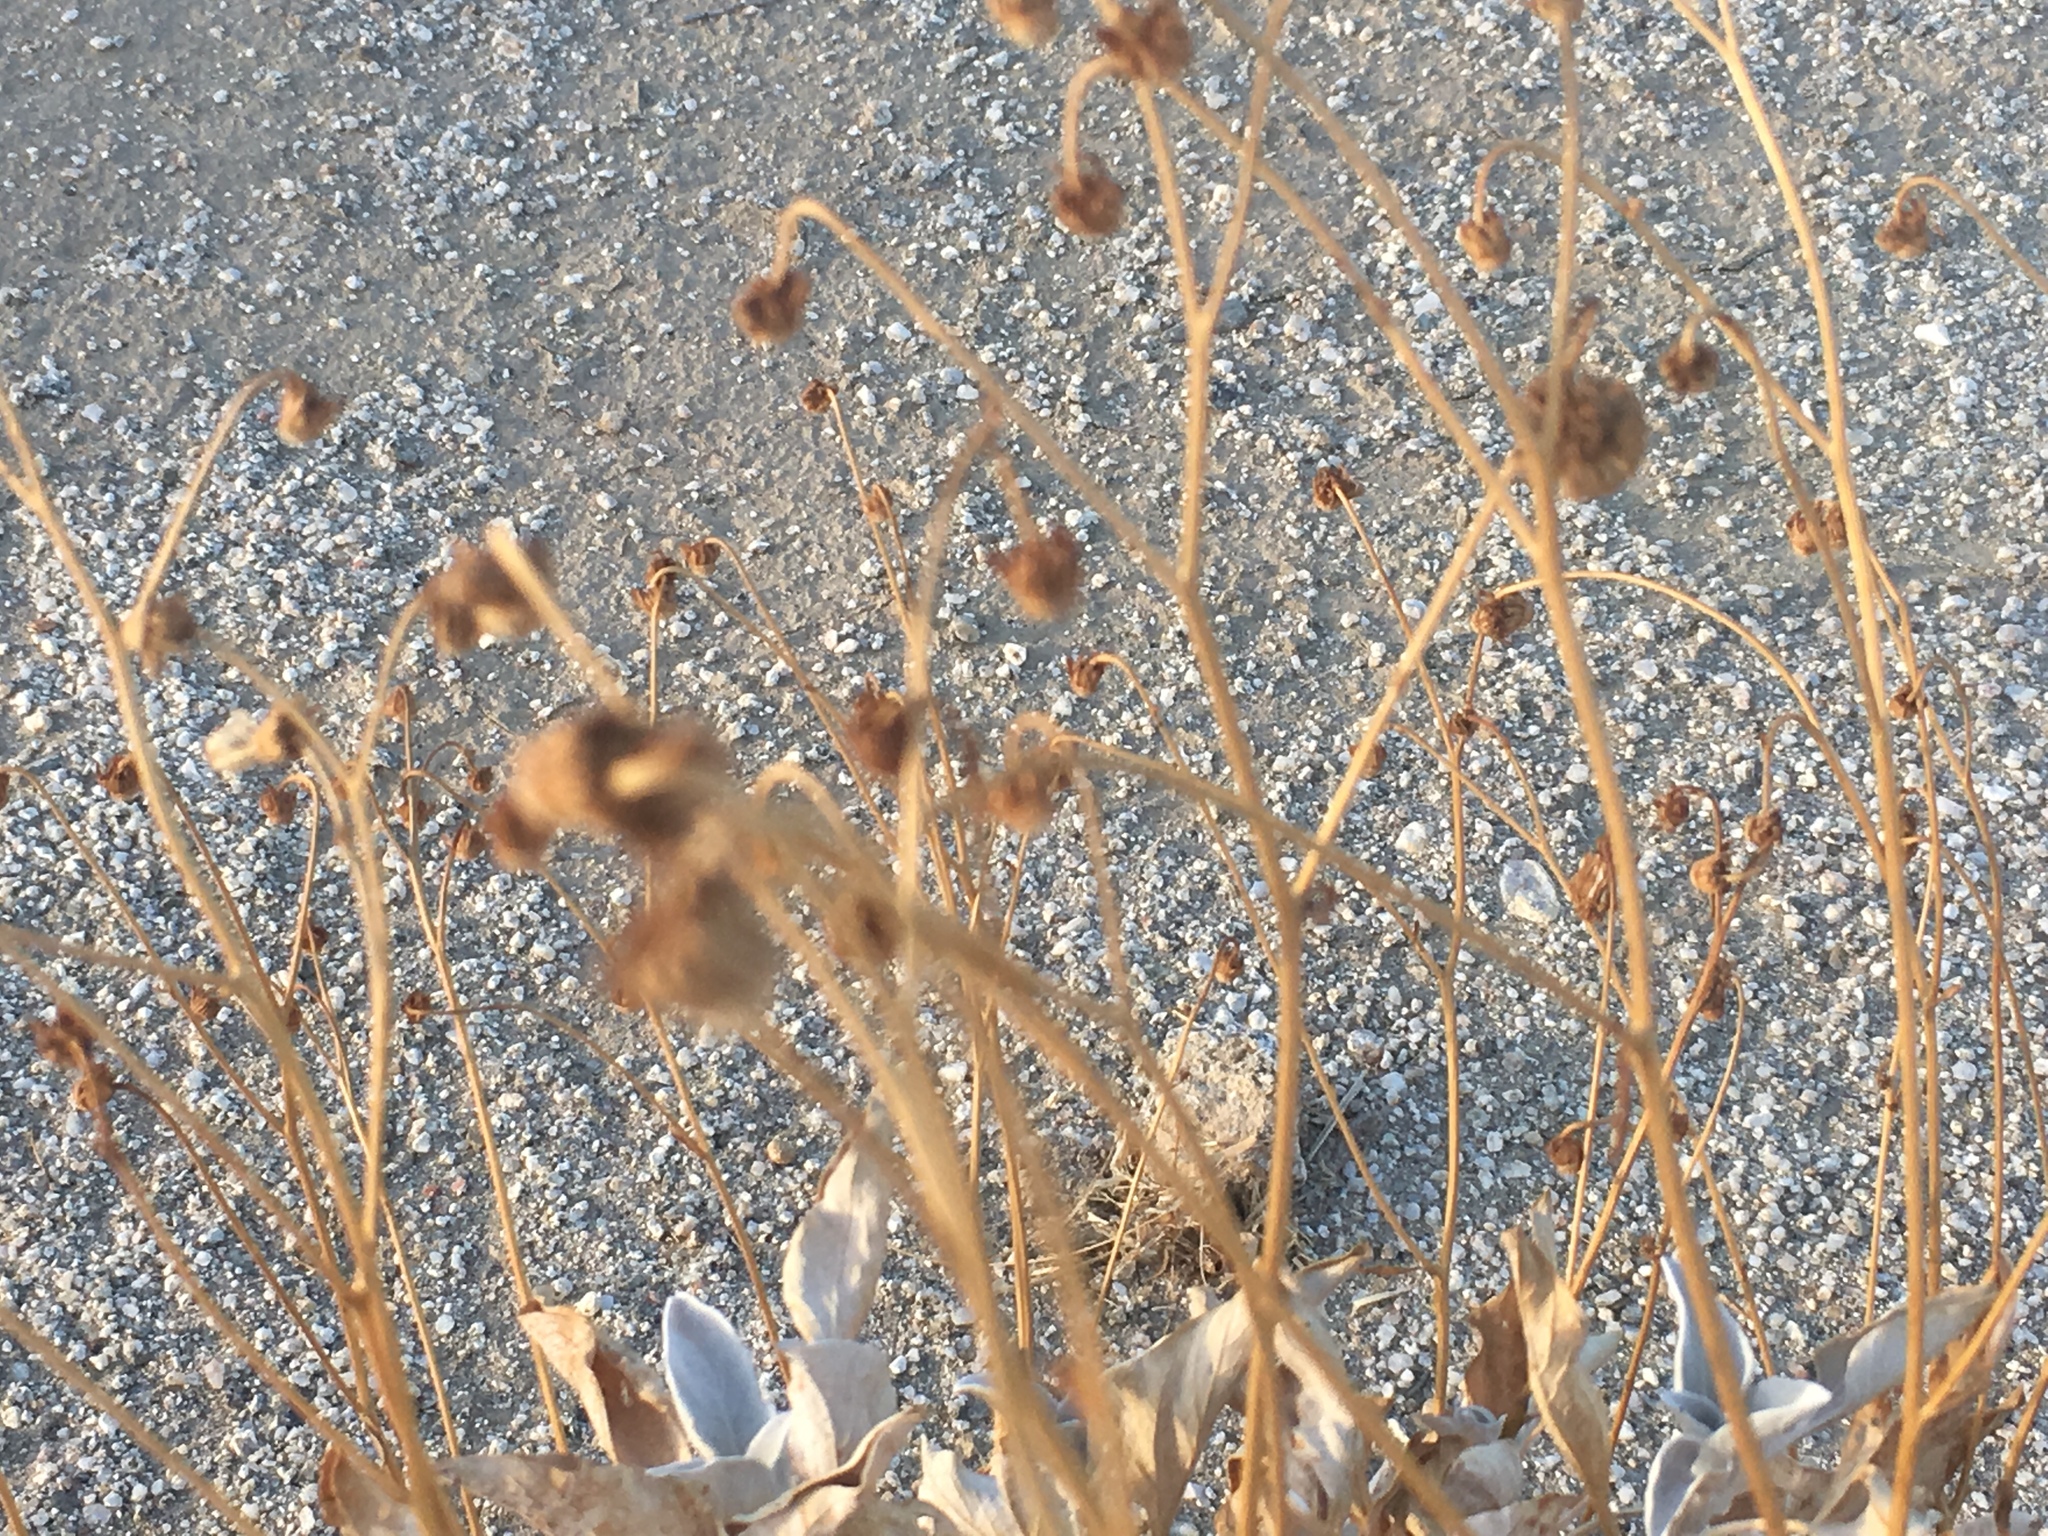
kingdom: Plantae
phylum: Tracheophyta
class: Magnoliopsida
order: Asterales
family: Asteraceae
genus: Encelia
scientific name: Encelia farinosa
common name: Brittlebush
